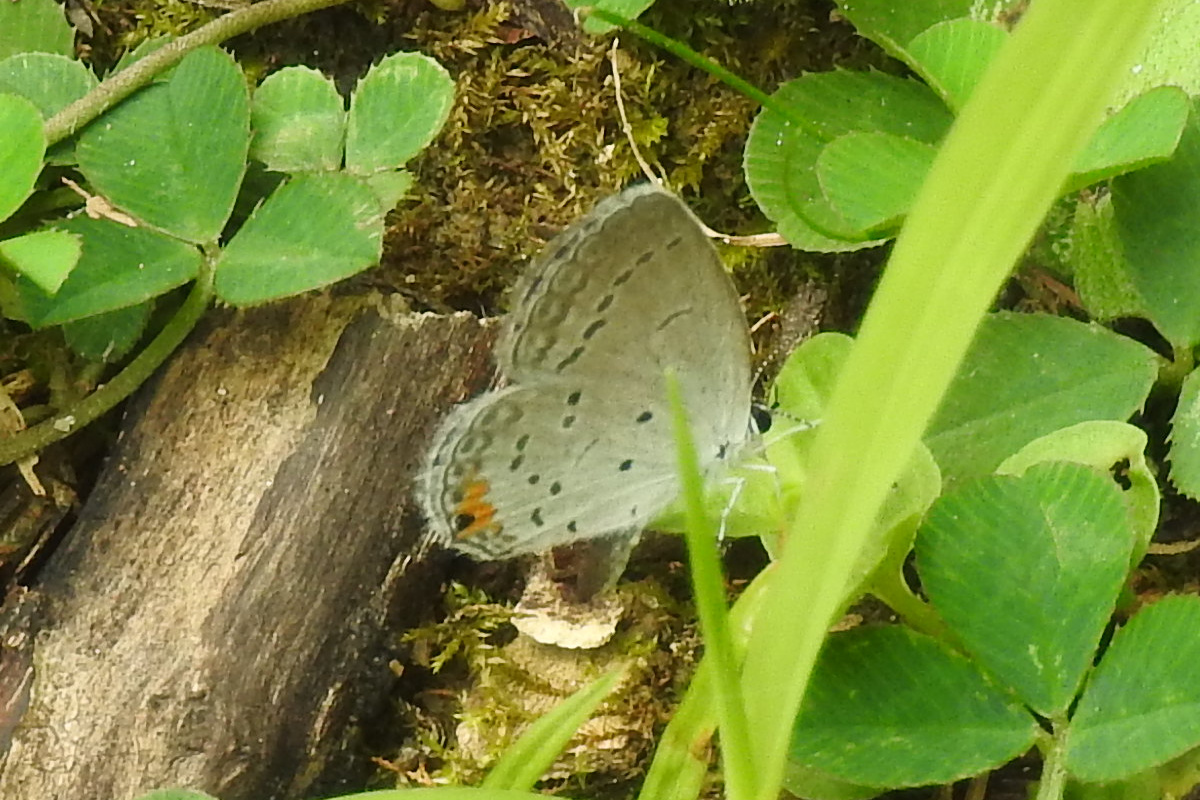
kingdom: Animalia
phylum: Arthropoda
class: Insecta
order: Lepidoptera
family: Lycaenidae
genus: Elkalyce
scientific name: Elkalyce comyntas
